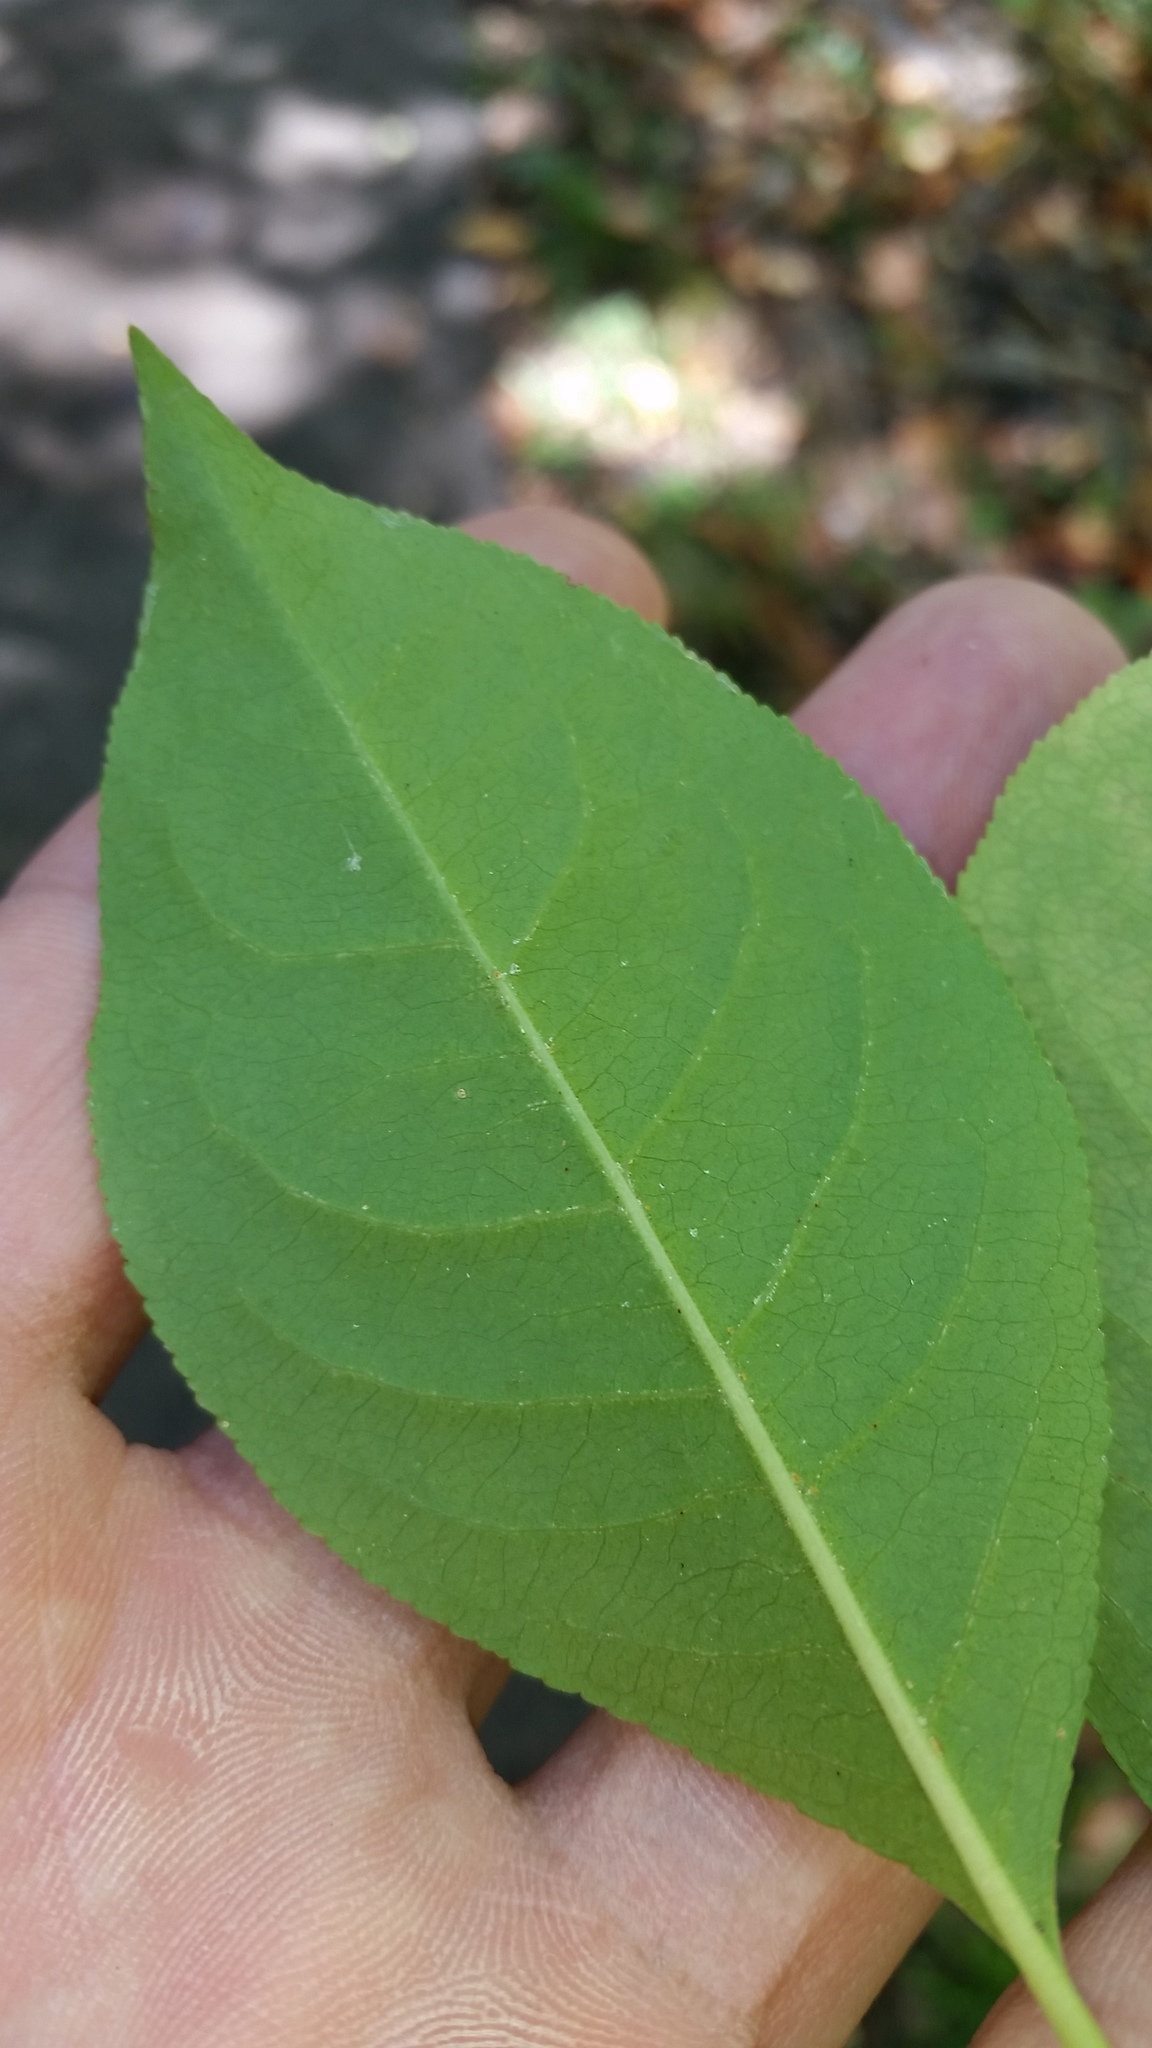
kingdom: Plantae
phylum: Tracheophyta
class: Magnoliopsida
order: Celastrales
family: Celastraceae
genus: Euonymus
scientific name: Euonymus europaeus
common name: Spindle
